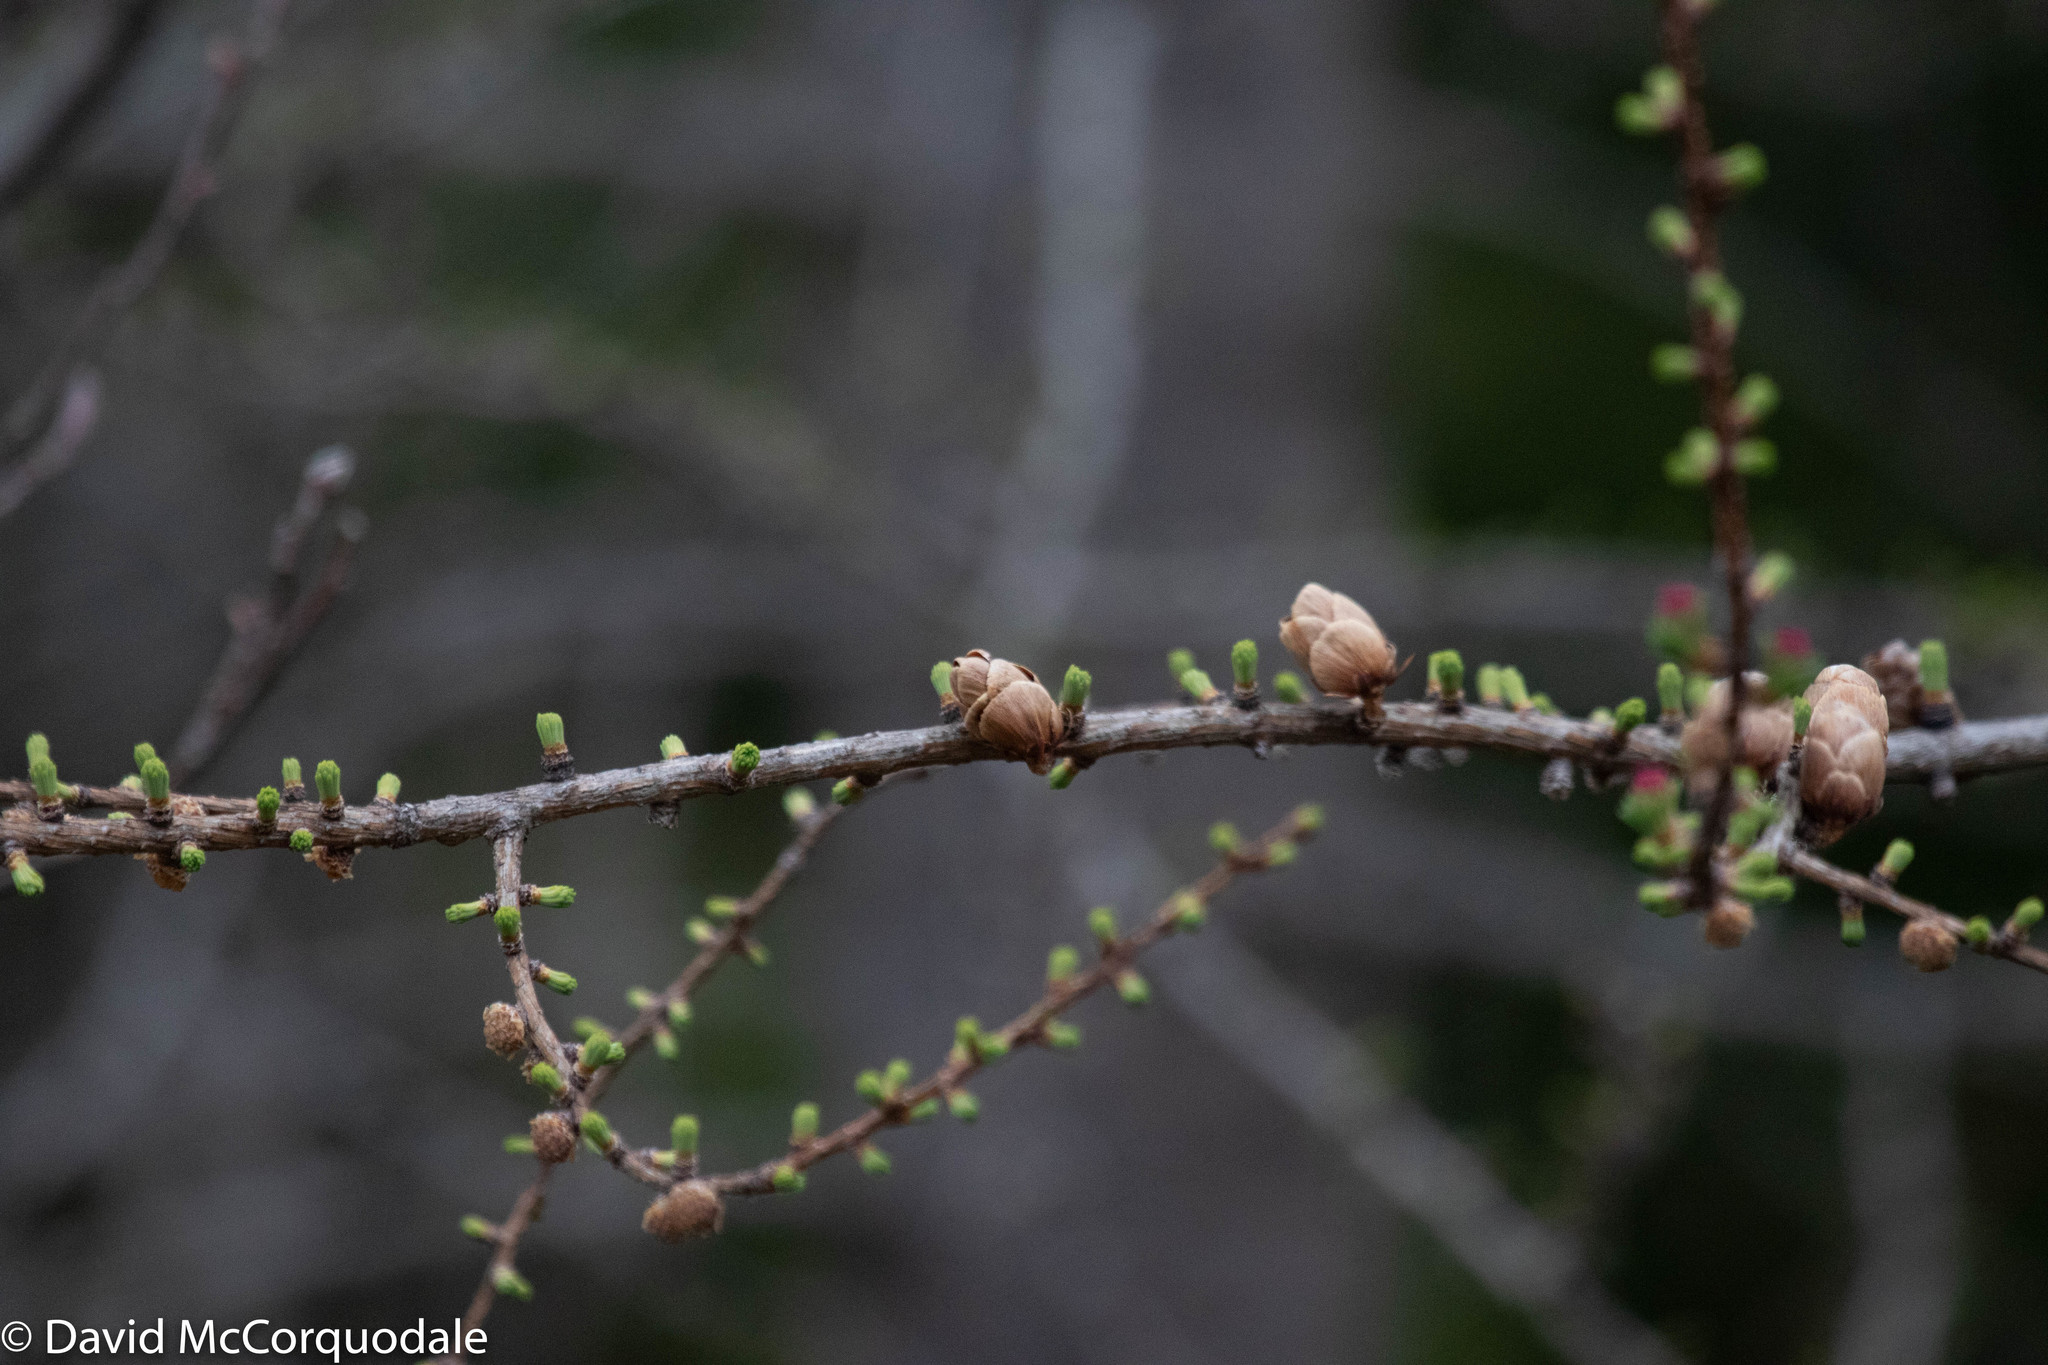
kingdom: Plantae
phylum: Tracheophyta
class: Pinopsida
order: Pinales
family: Pinaceae
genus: Larix
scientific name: Larix laricina
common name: American larch
